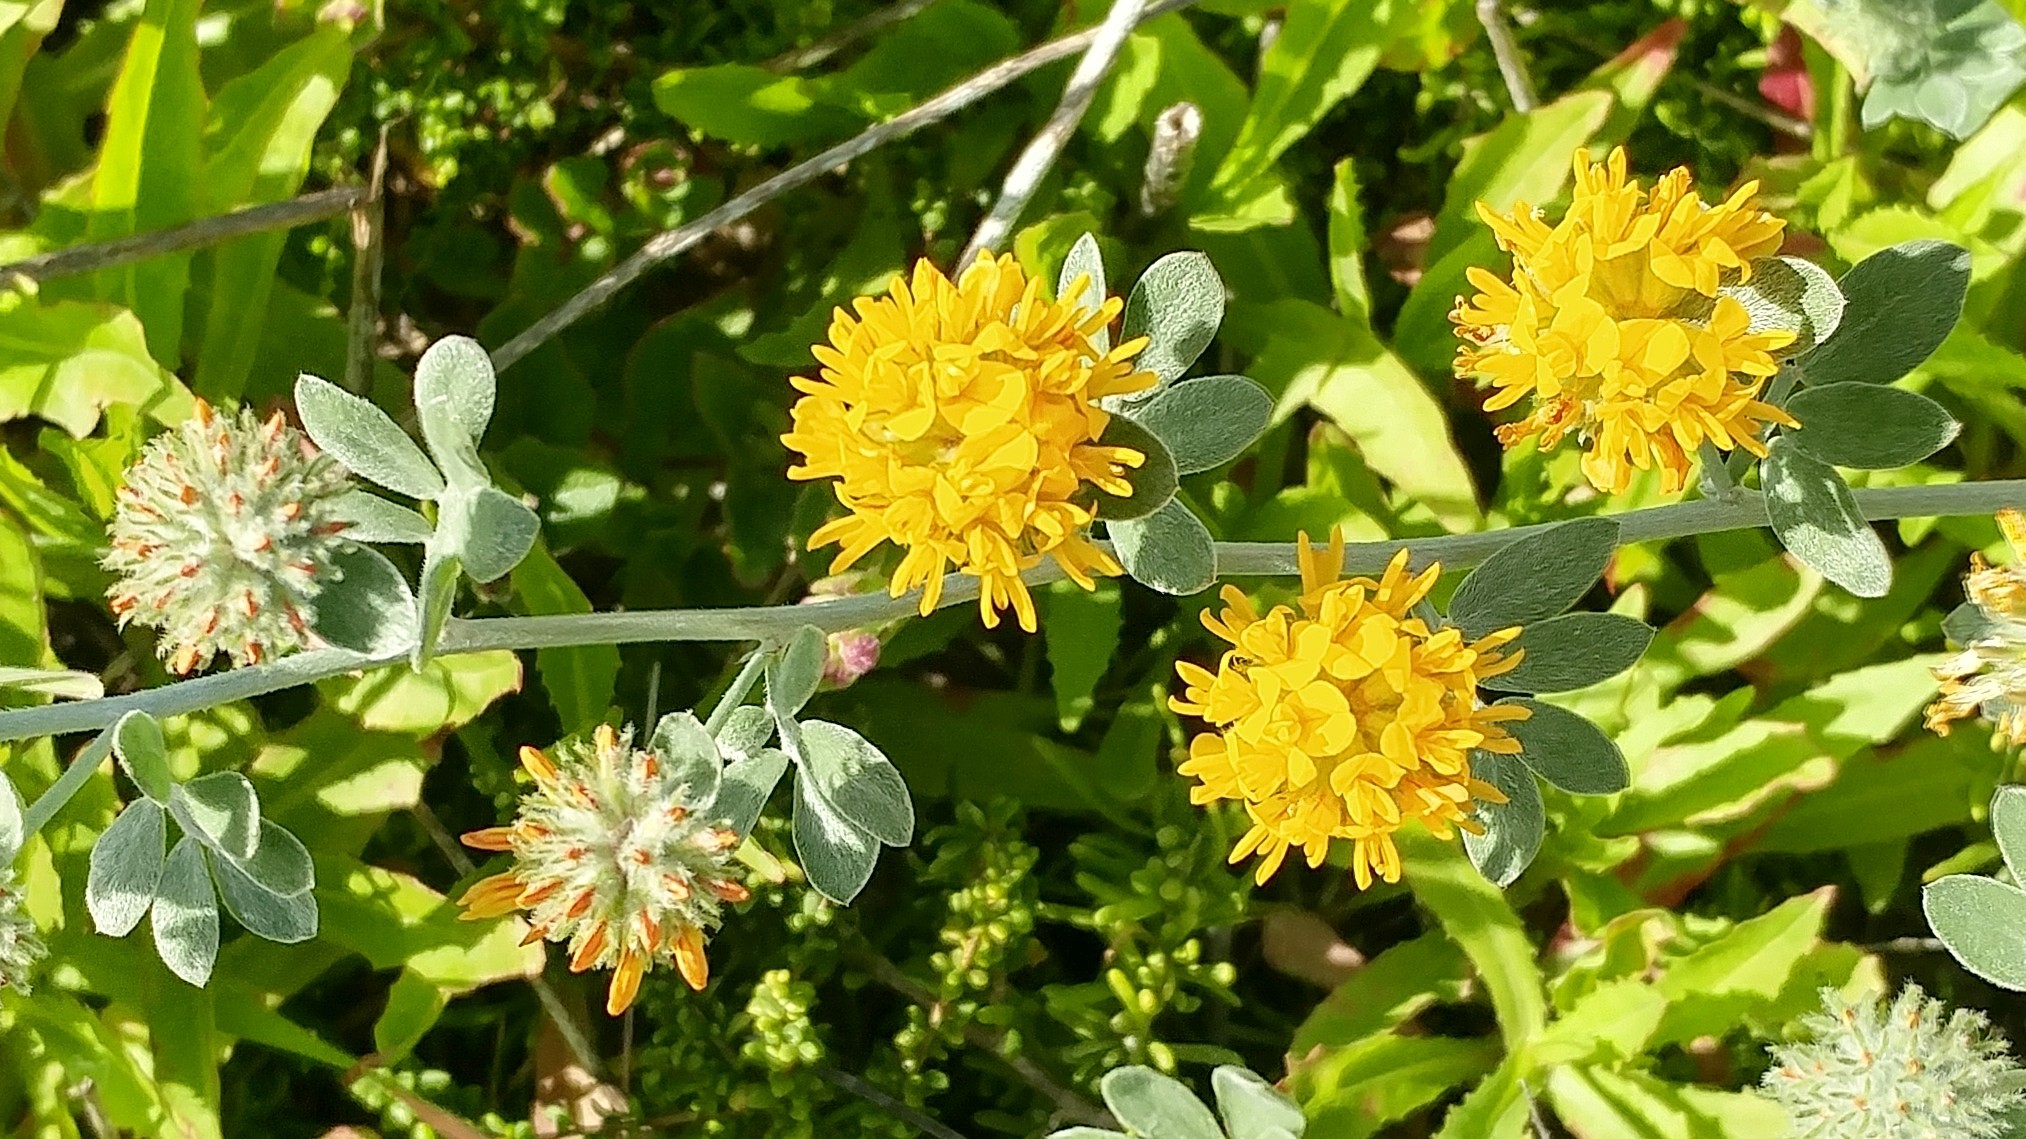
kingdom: Plantae
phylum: Tracheophyta
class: Magnoliopsida
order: Fabales
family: Fabaceae
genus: Acmispon
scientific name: Acmispon argophyllus
